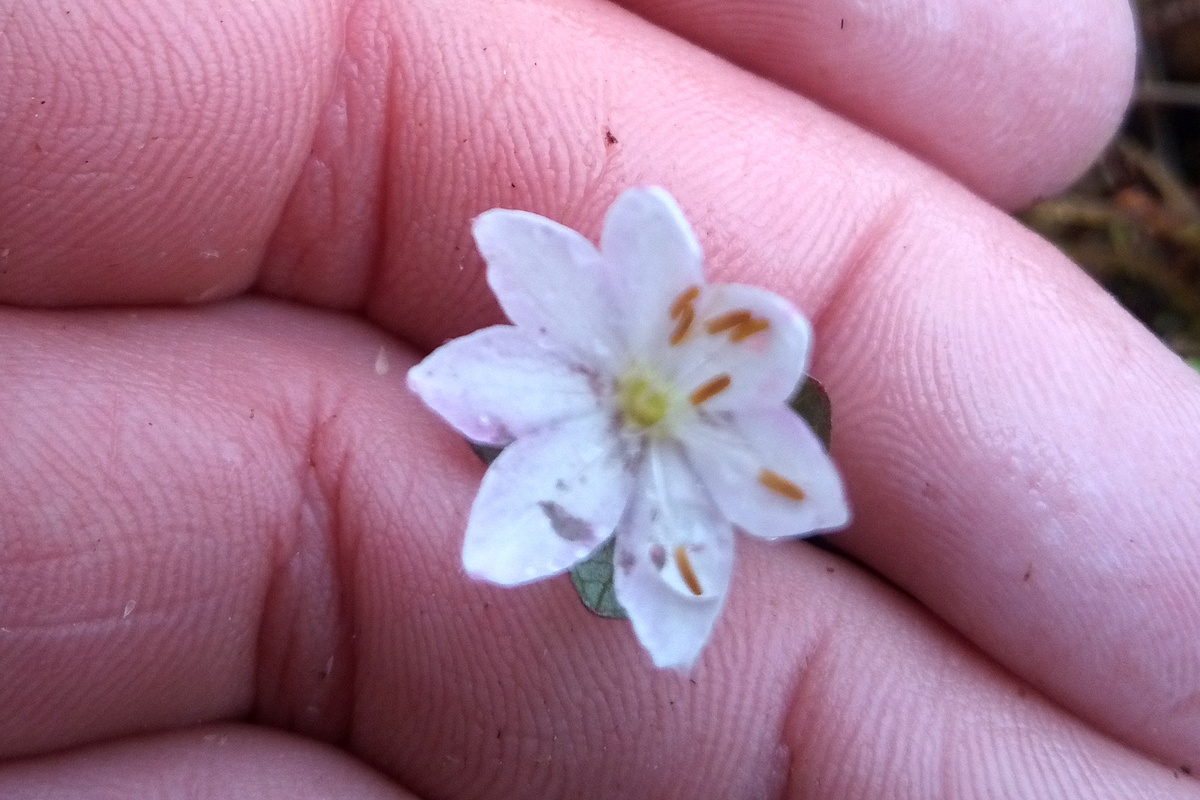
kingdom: Plantae
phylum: Tracheophyta
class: Magnoliopsida
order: Ericales
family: Primulaceae
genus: Lysimachia
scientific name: Lysimachia europaea
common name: Arctic starflower
